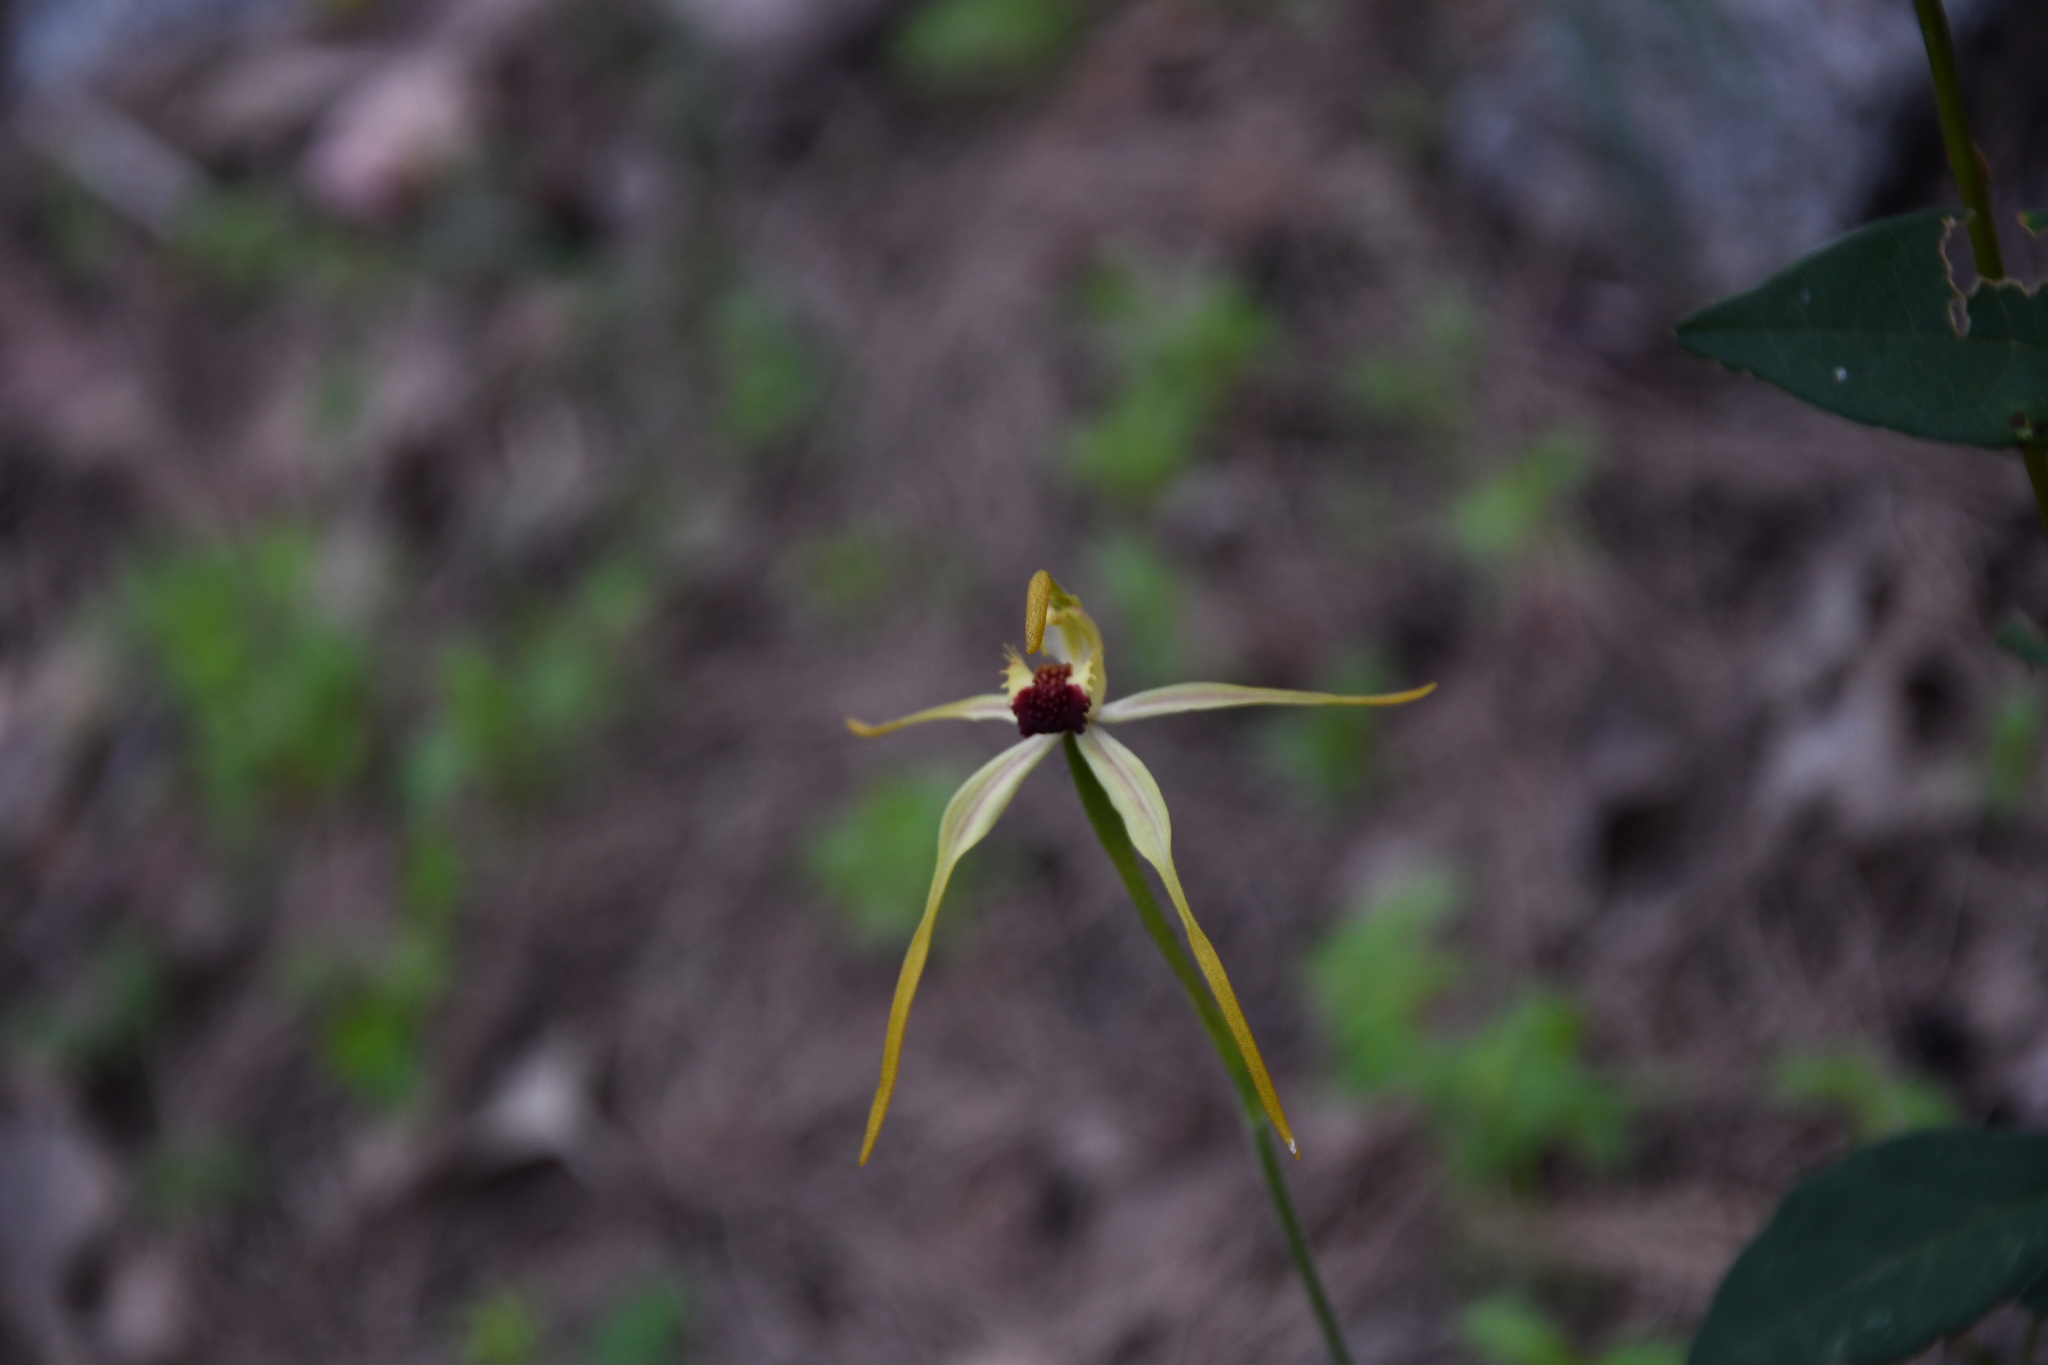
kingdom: Plantae
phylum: Tracheophyta
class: Liliopsida
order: Asparagales
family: Orchidaceae
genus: Caladenia
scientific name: Caladenia longiclavata
